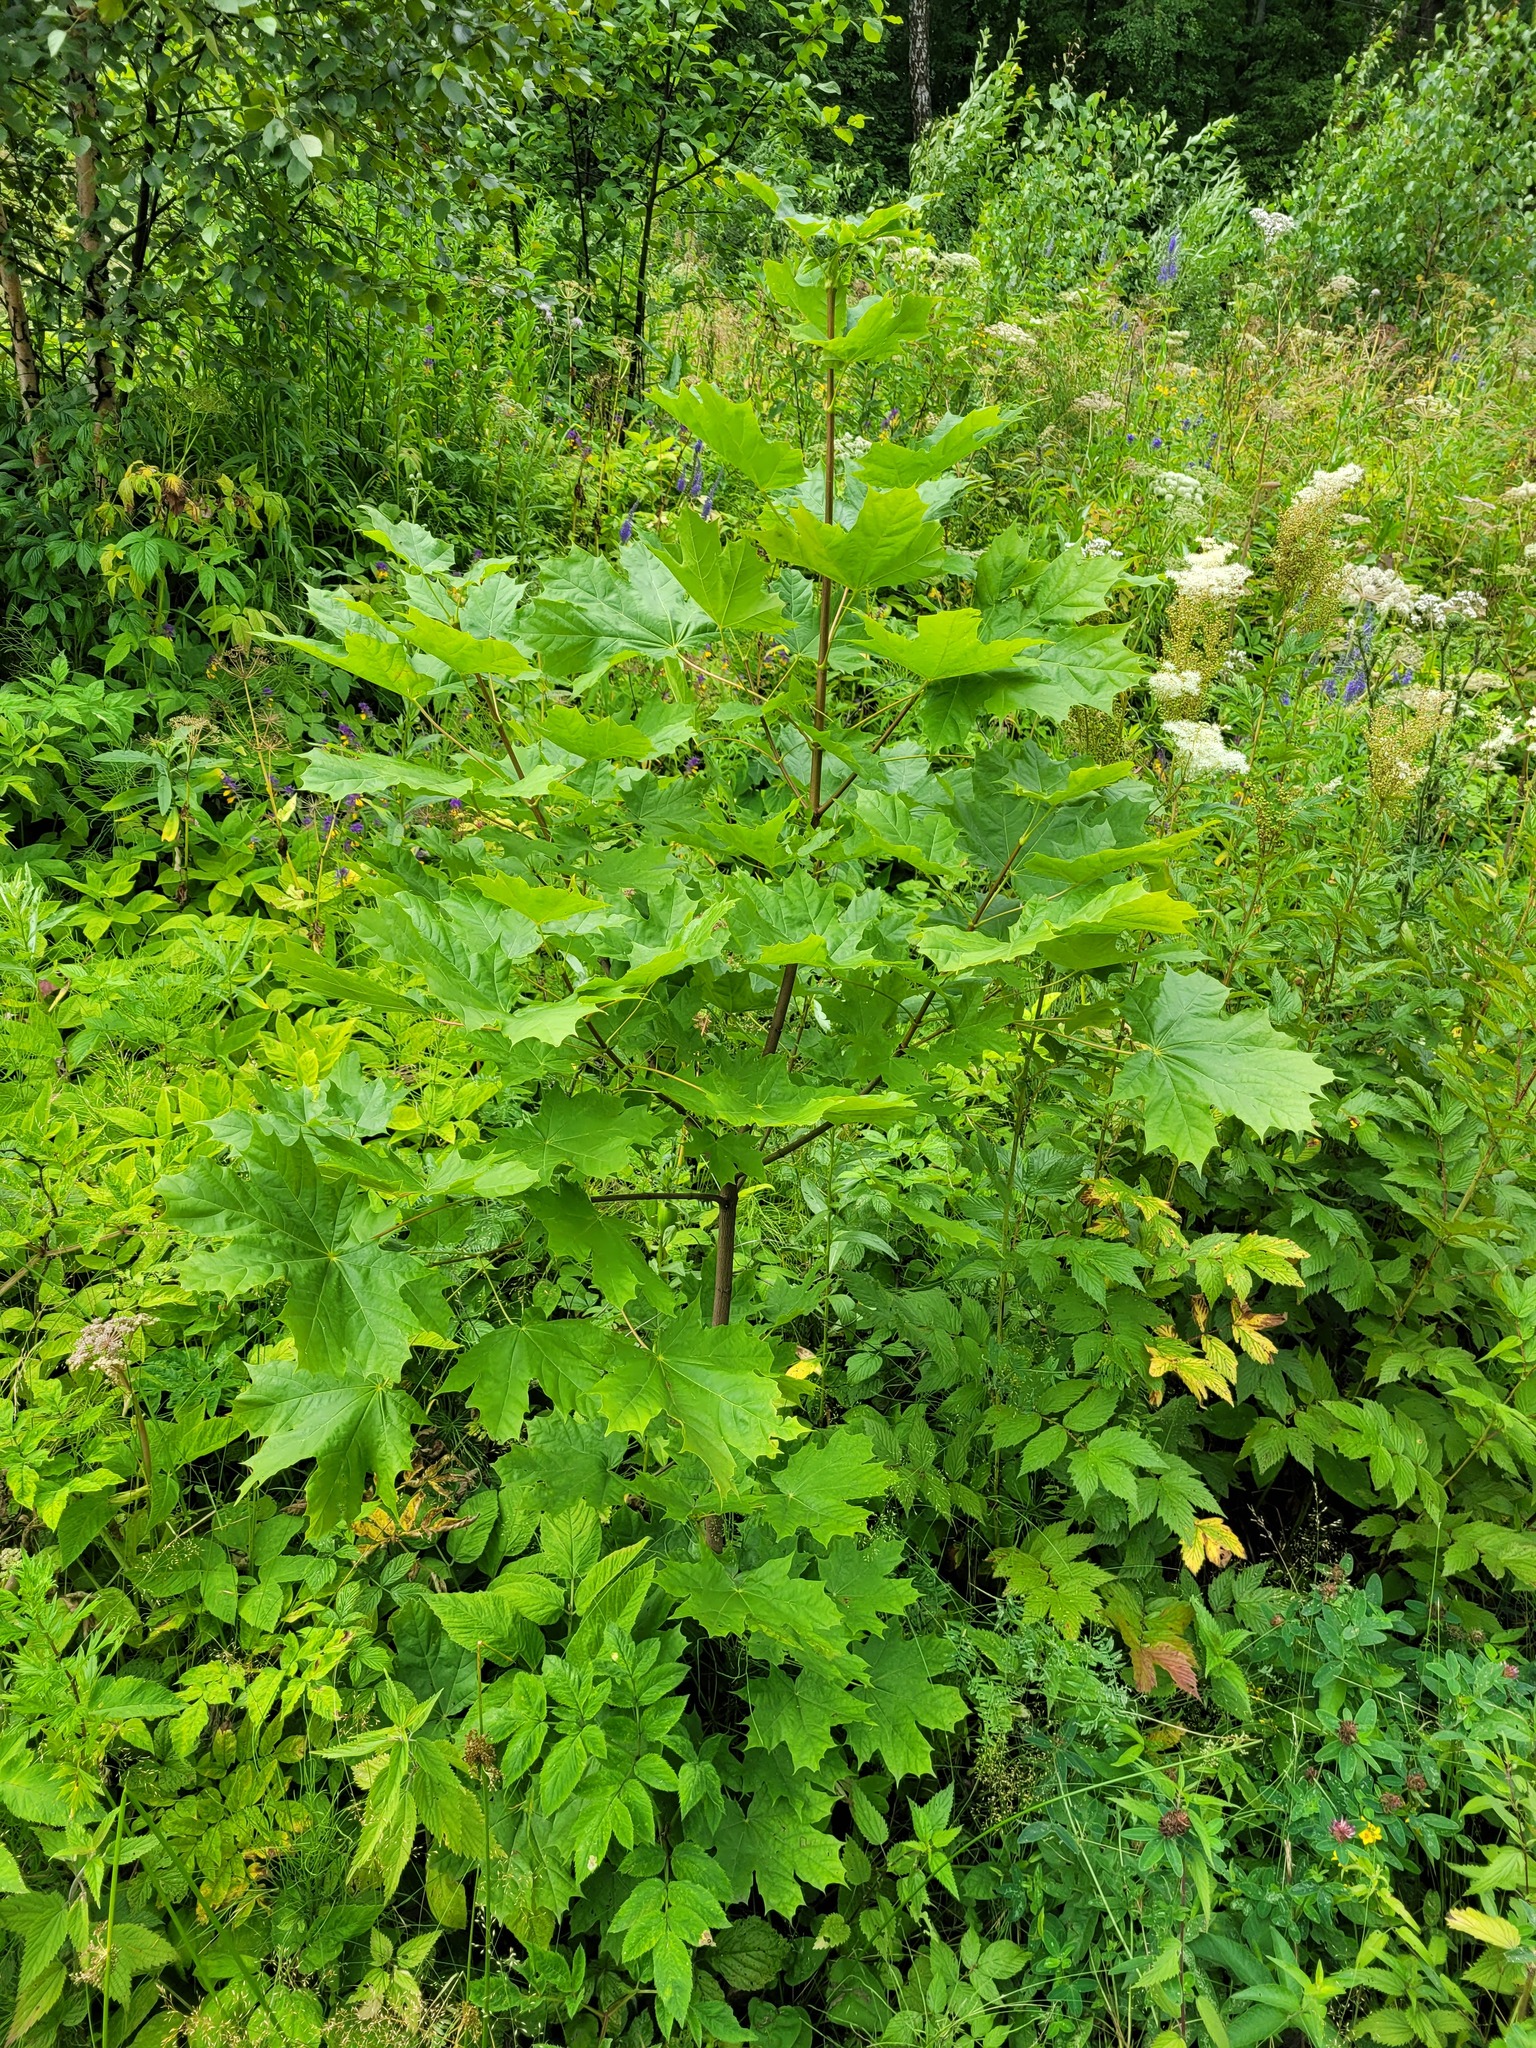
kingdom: Plantae
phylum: Tracheophyta
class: Magnoliopsida
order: Sapindales
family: Sapindaceae
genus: Acer
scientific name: Acer platanoides
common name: Norway maple
